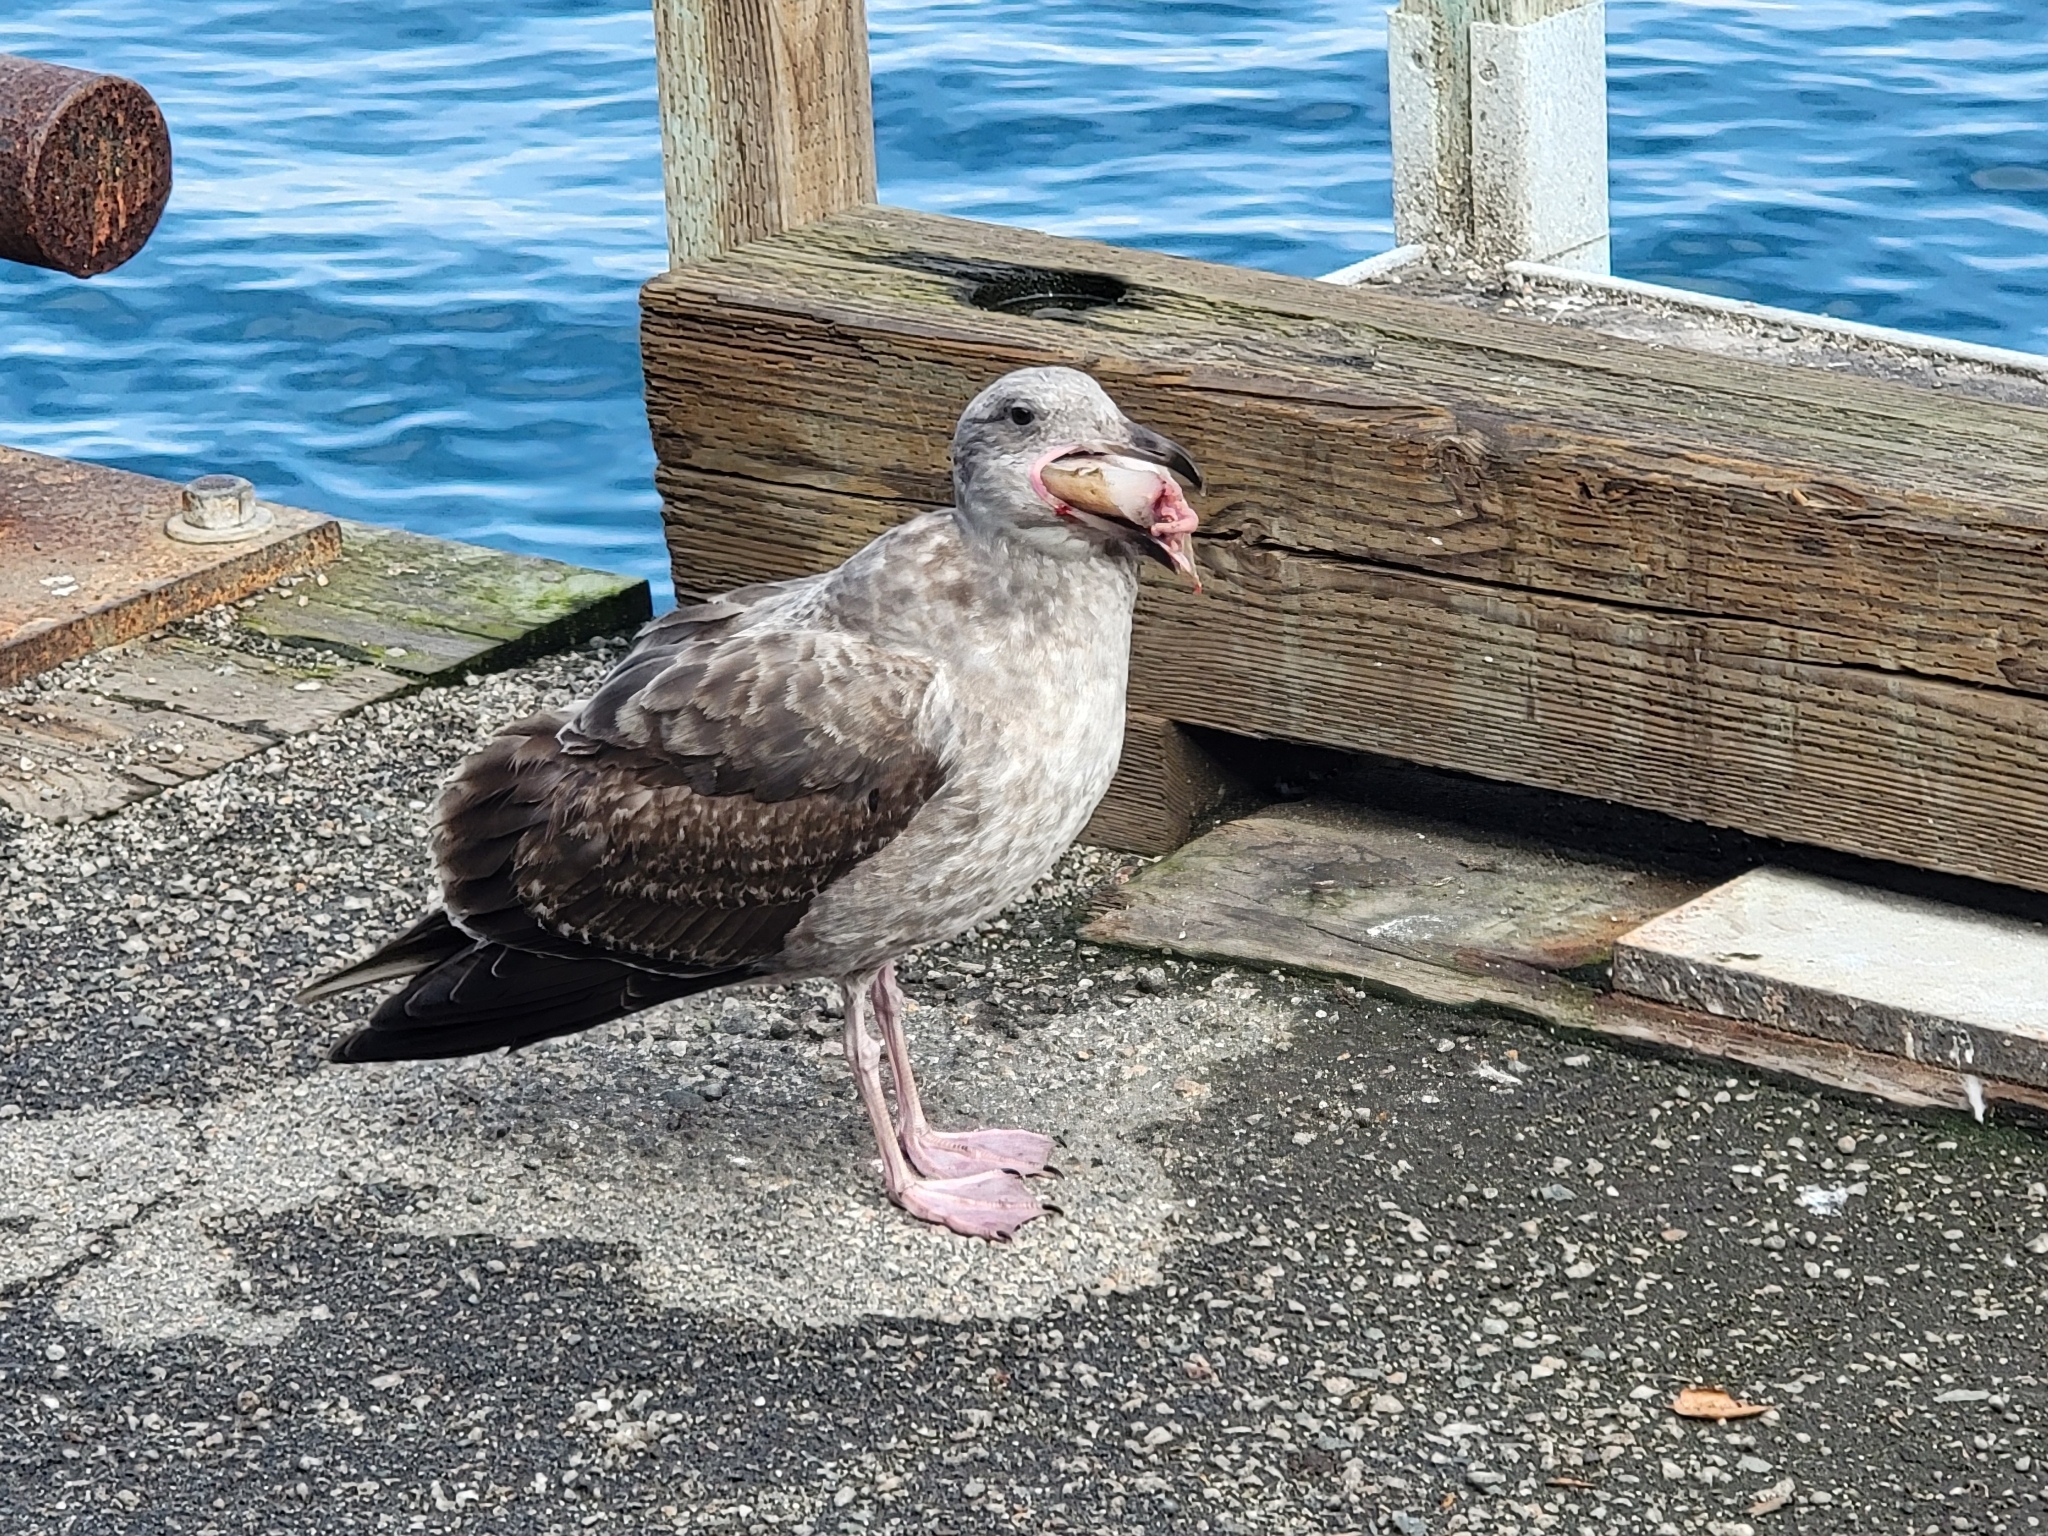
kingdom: Animalia
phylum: Chordata
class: Aves
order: Charadriiformes
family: Laridae
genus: Larus
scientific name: Larus occidentalis
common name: Western gull
